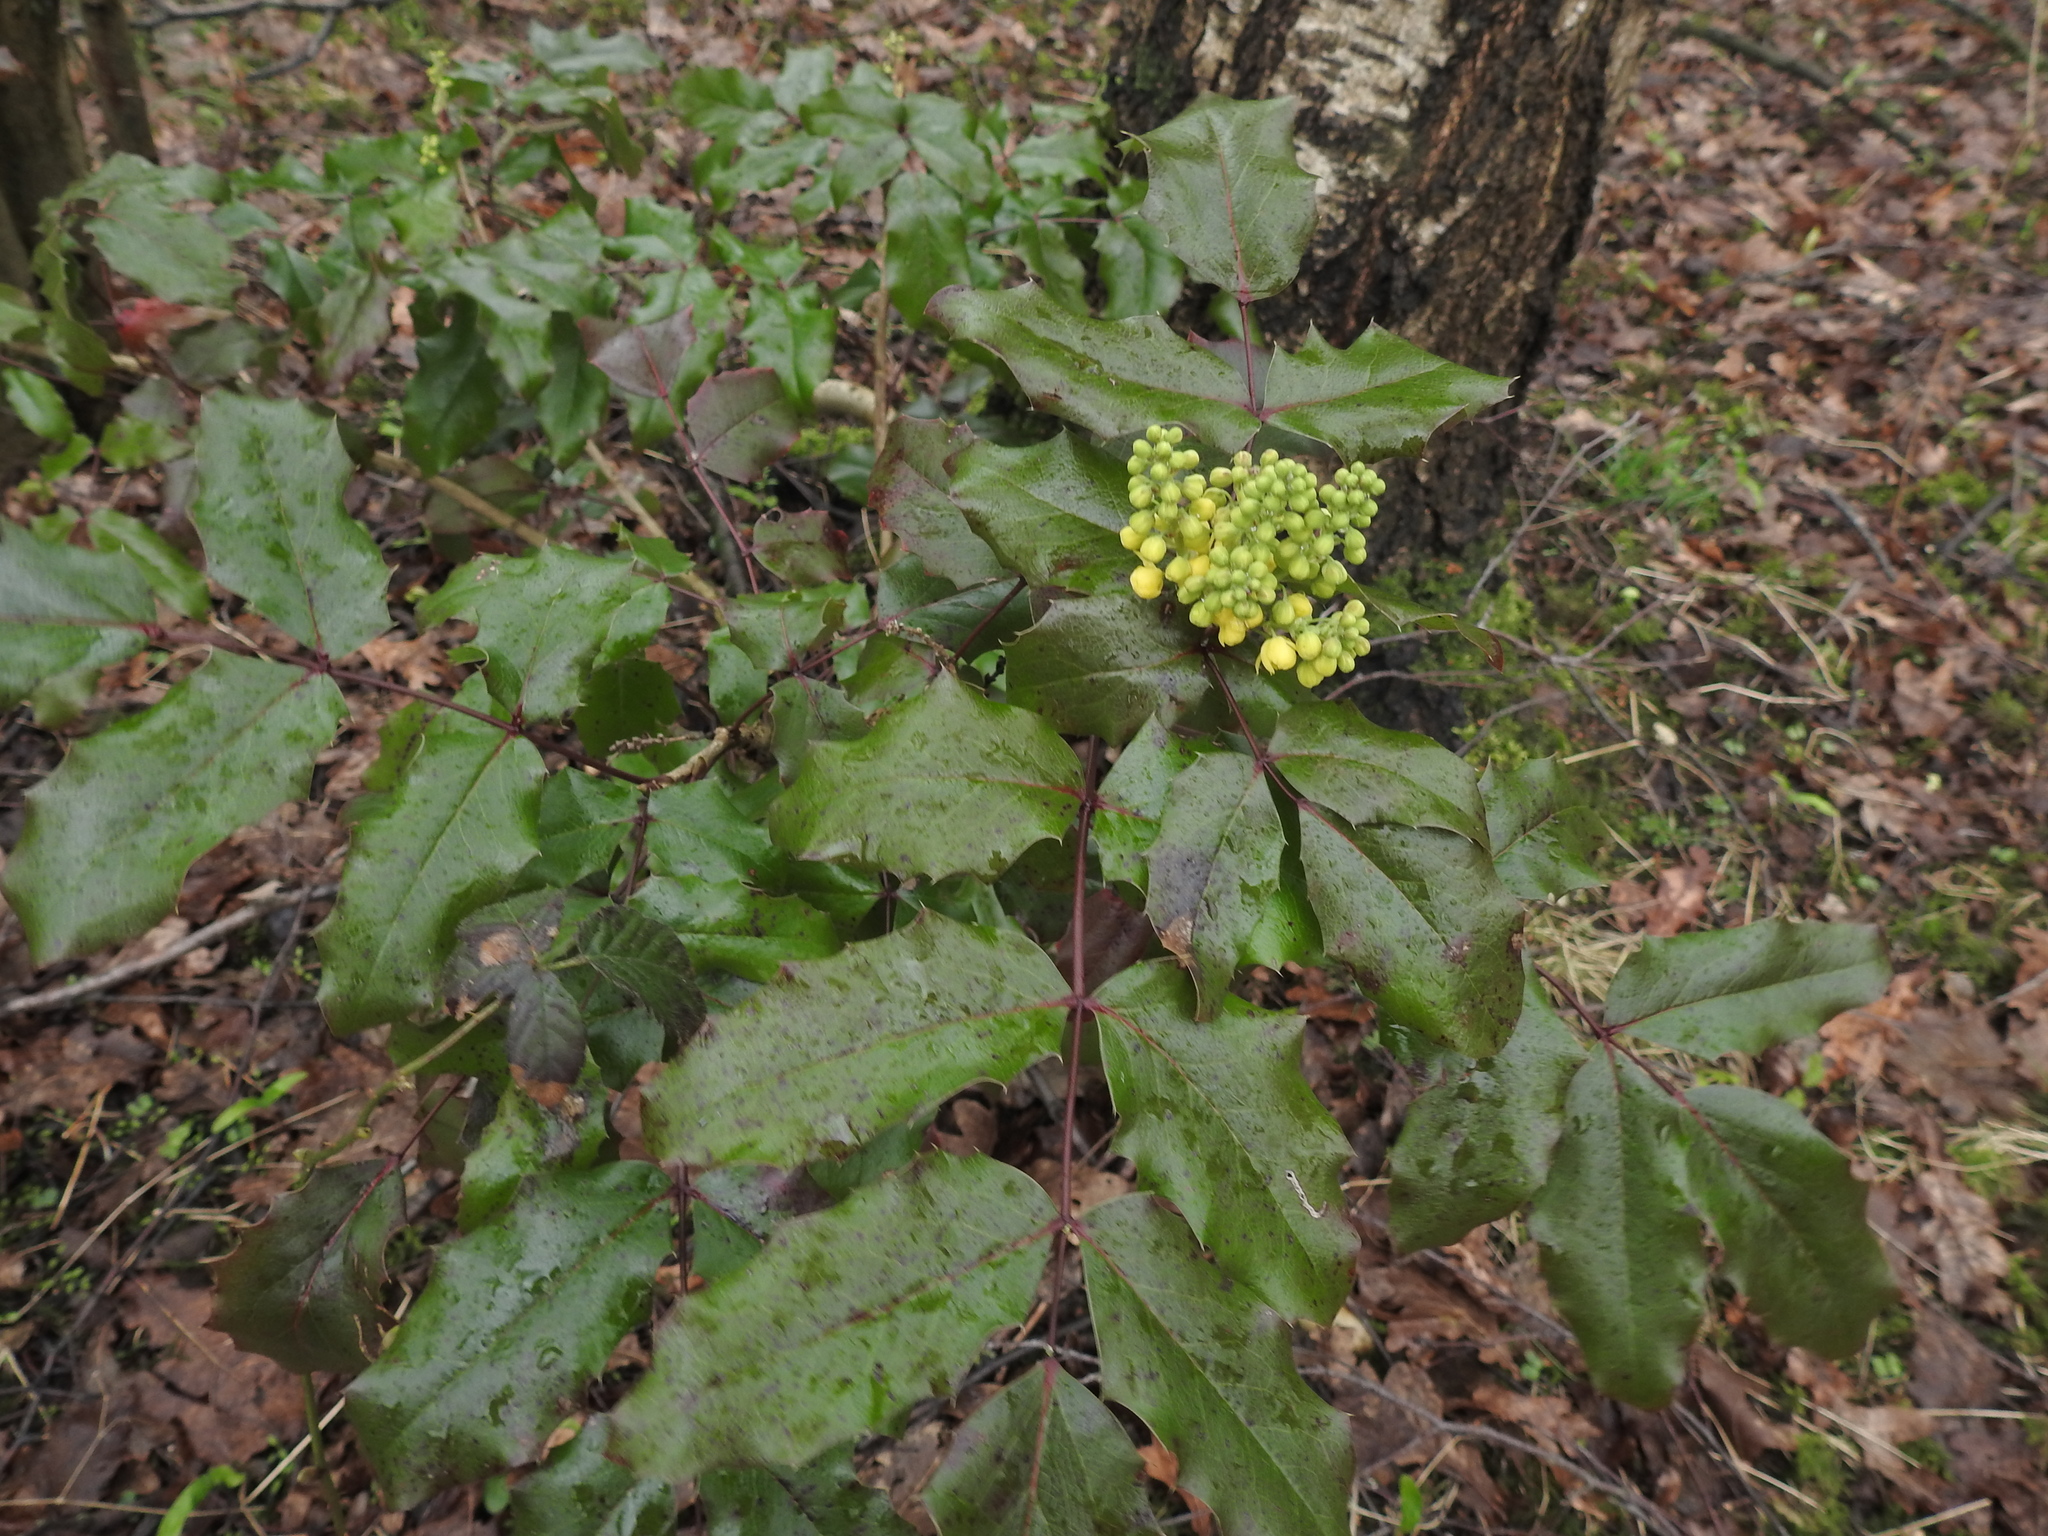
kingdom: Plantae
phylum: Tracheophyta
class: Magnoliopsida
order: Ranunculales
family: Berberidaceae
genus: Mahonia
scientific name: Mahonia aquifolium
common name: Oregon-grape
